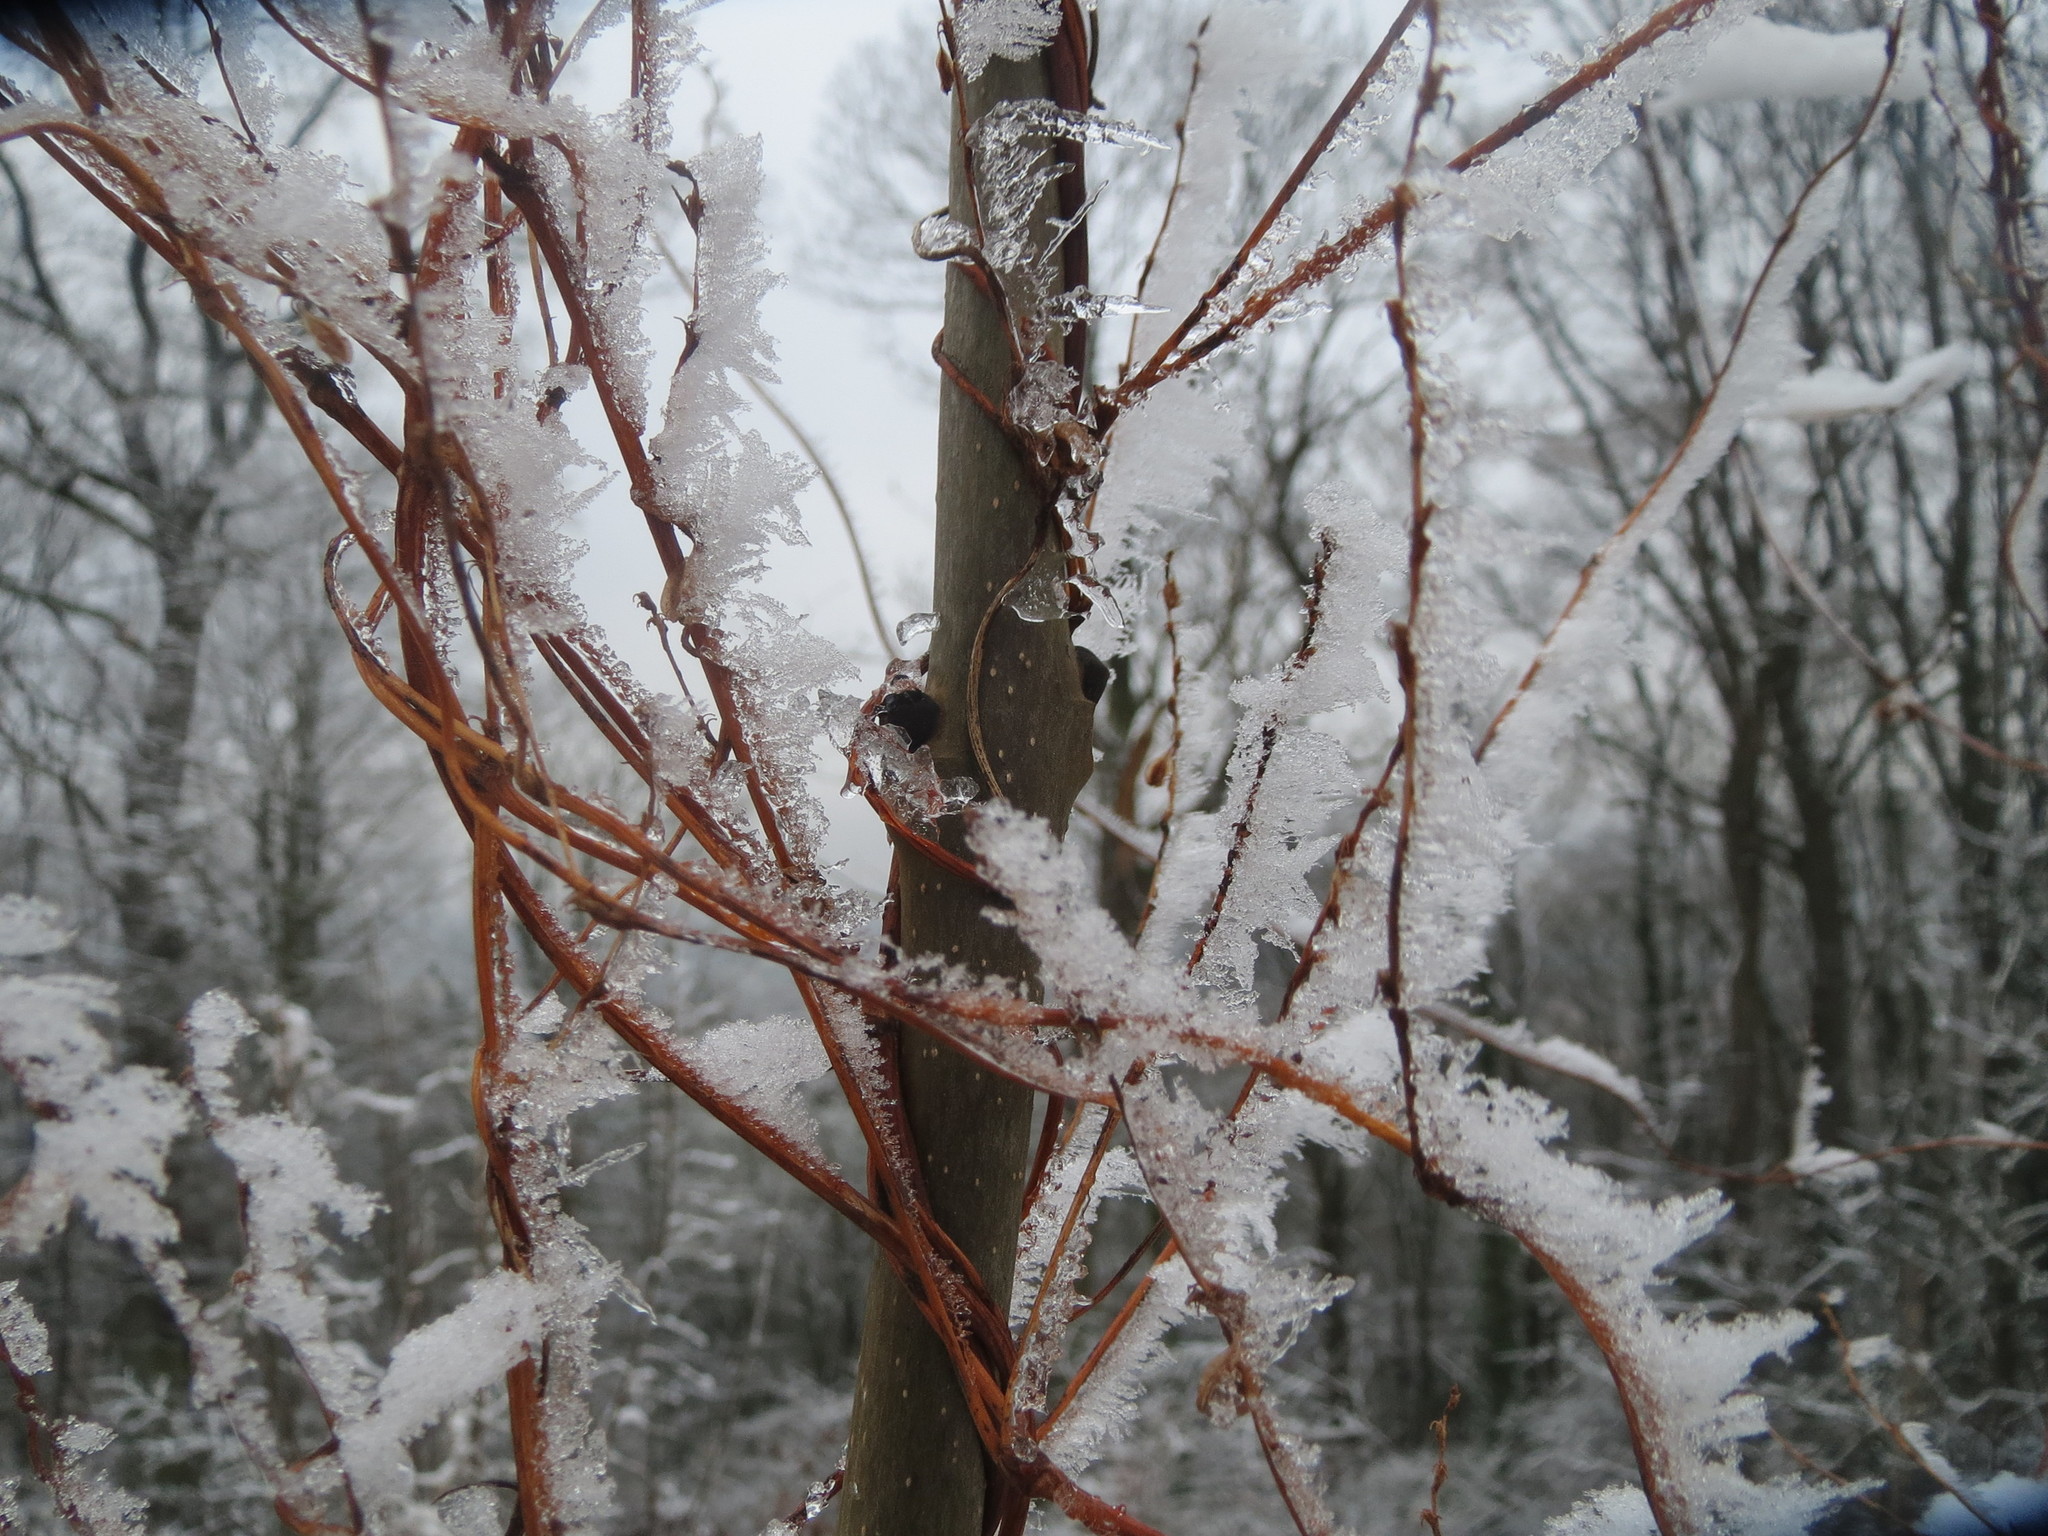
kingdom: Plantae
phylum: Tracheophyta
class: Magnoliopsida
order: Caryophyllales
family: Polygonaceae
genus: Fallopia
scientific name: Fallopia baldschuanica
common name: Russian-vine
